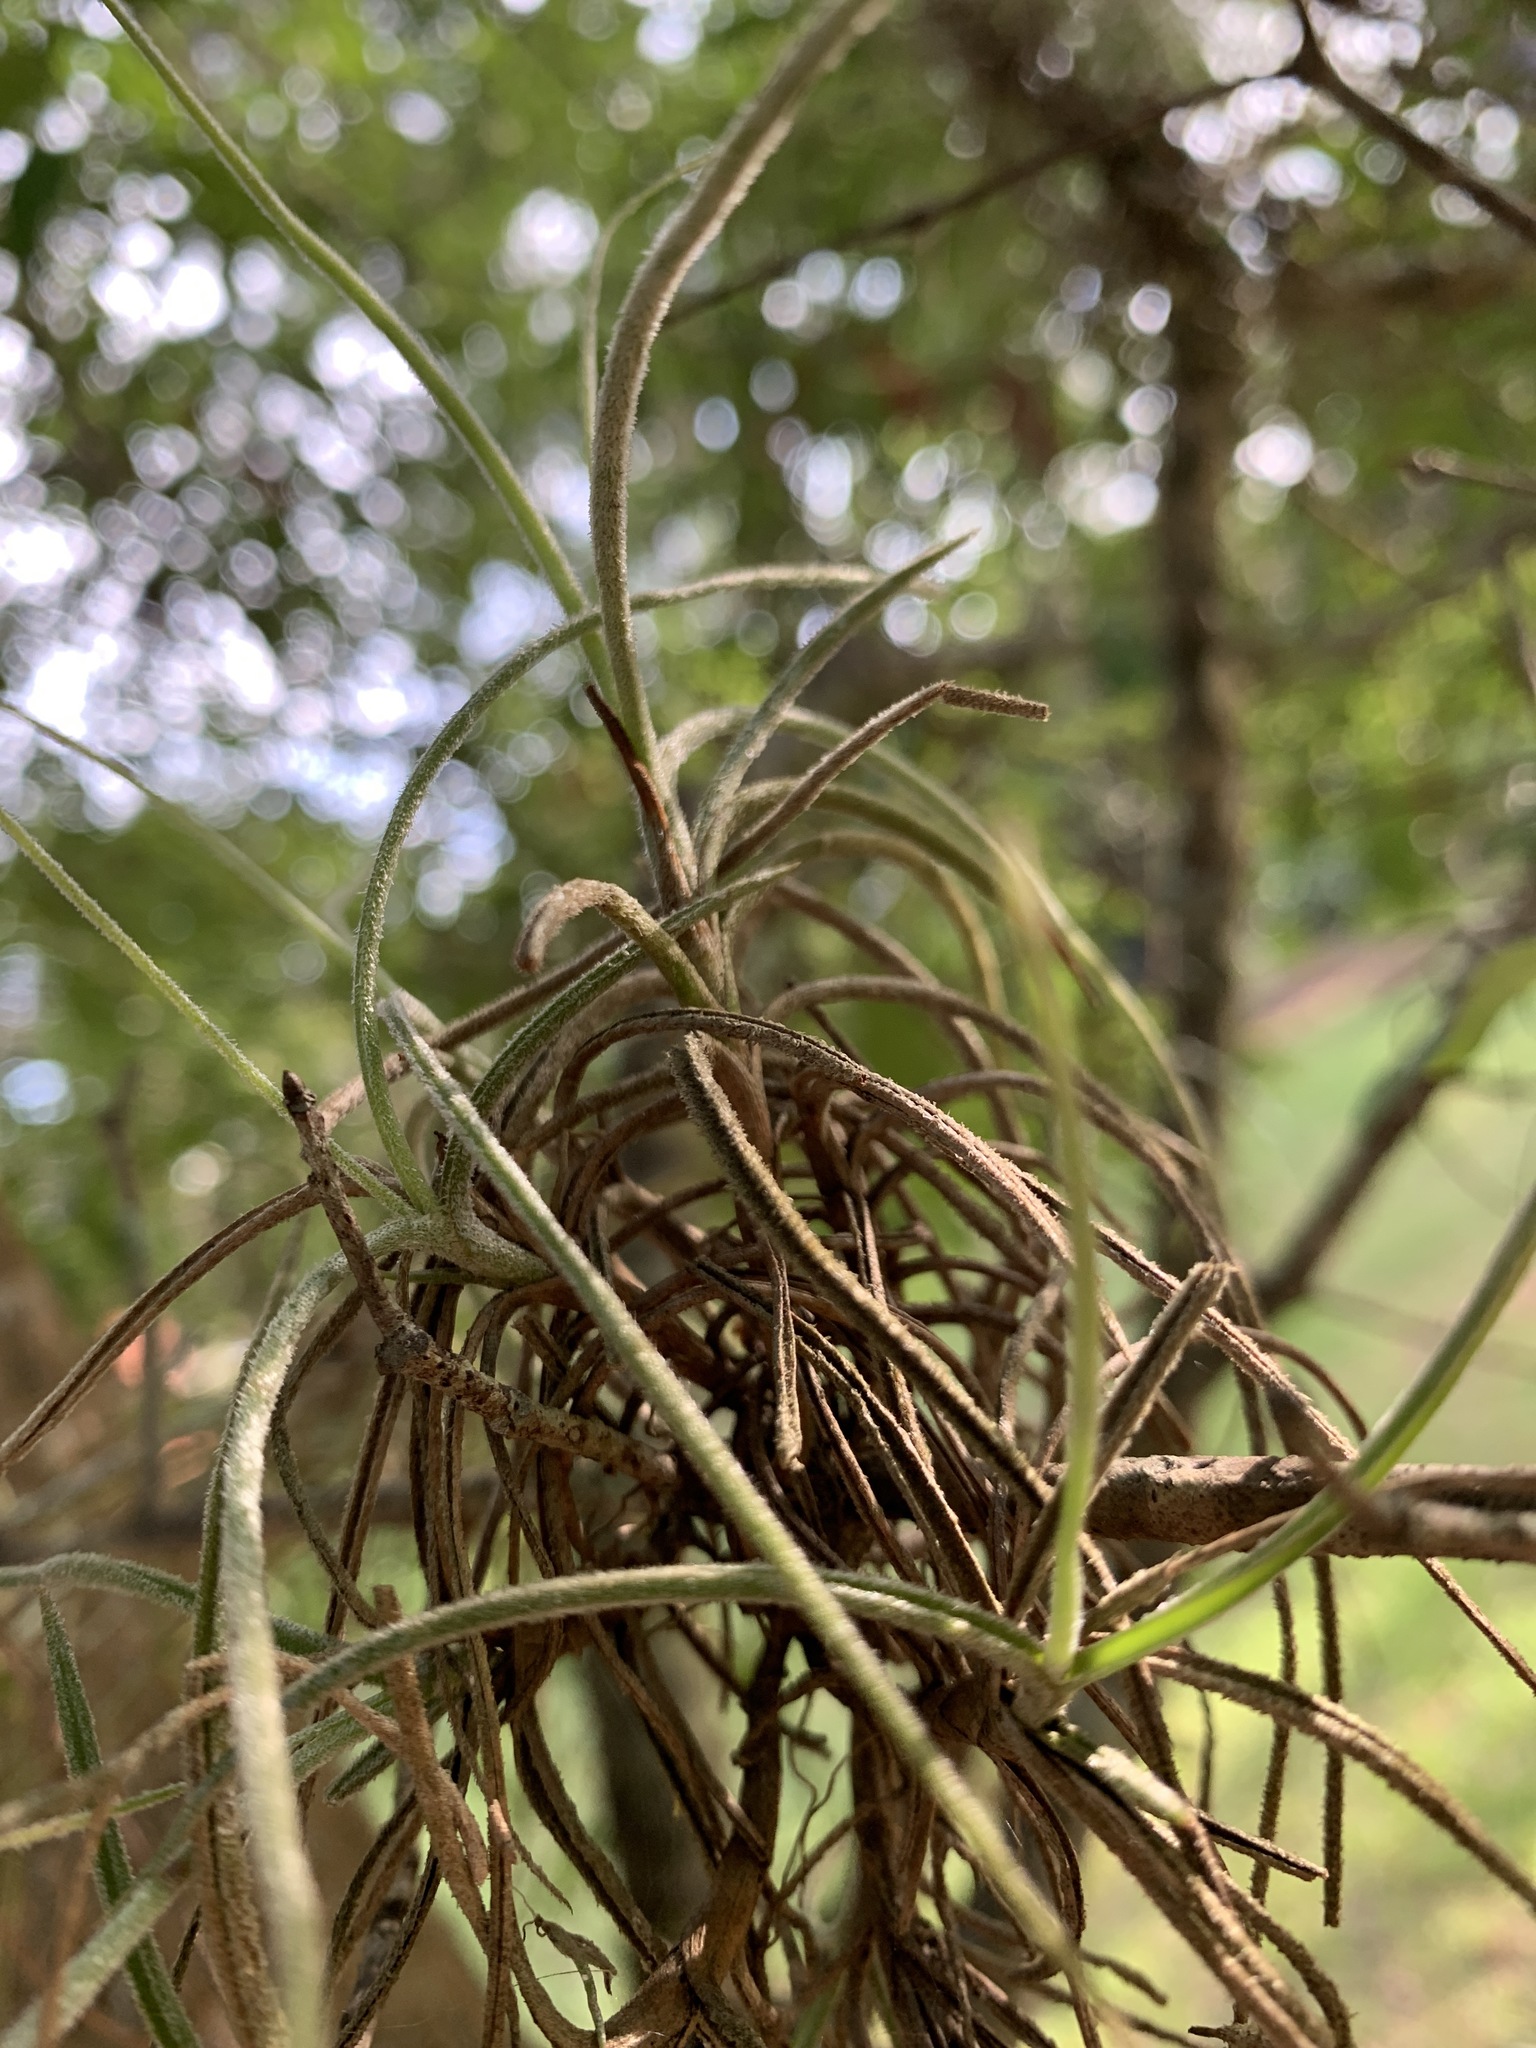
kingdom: Plantae
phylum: Tracheophyta
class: Liliopsida
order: Poales
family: Bromeliaceae
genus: Tillandsia
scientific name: Tillandsia recurvata
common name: Small ballmoss
